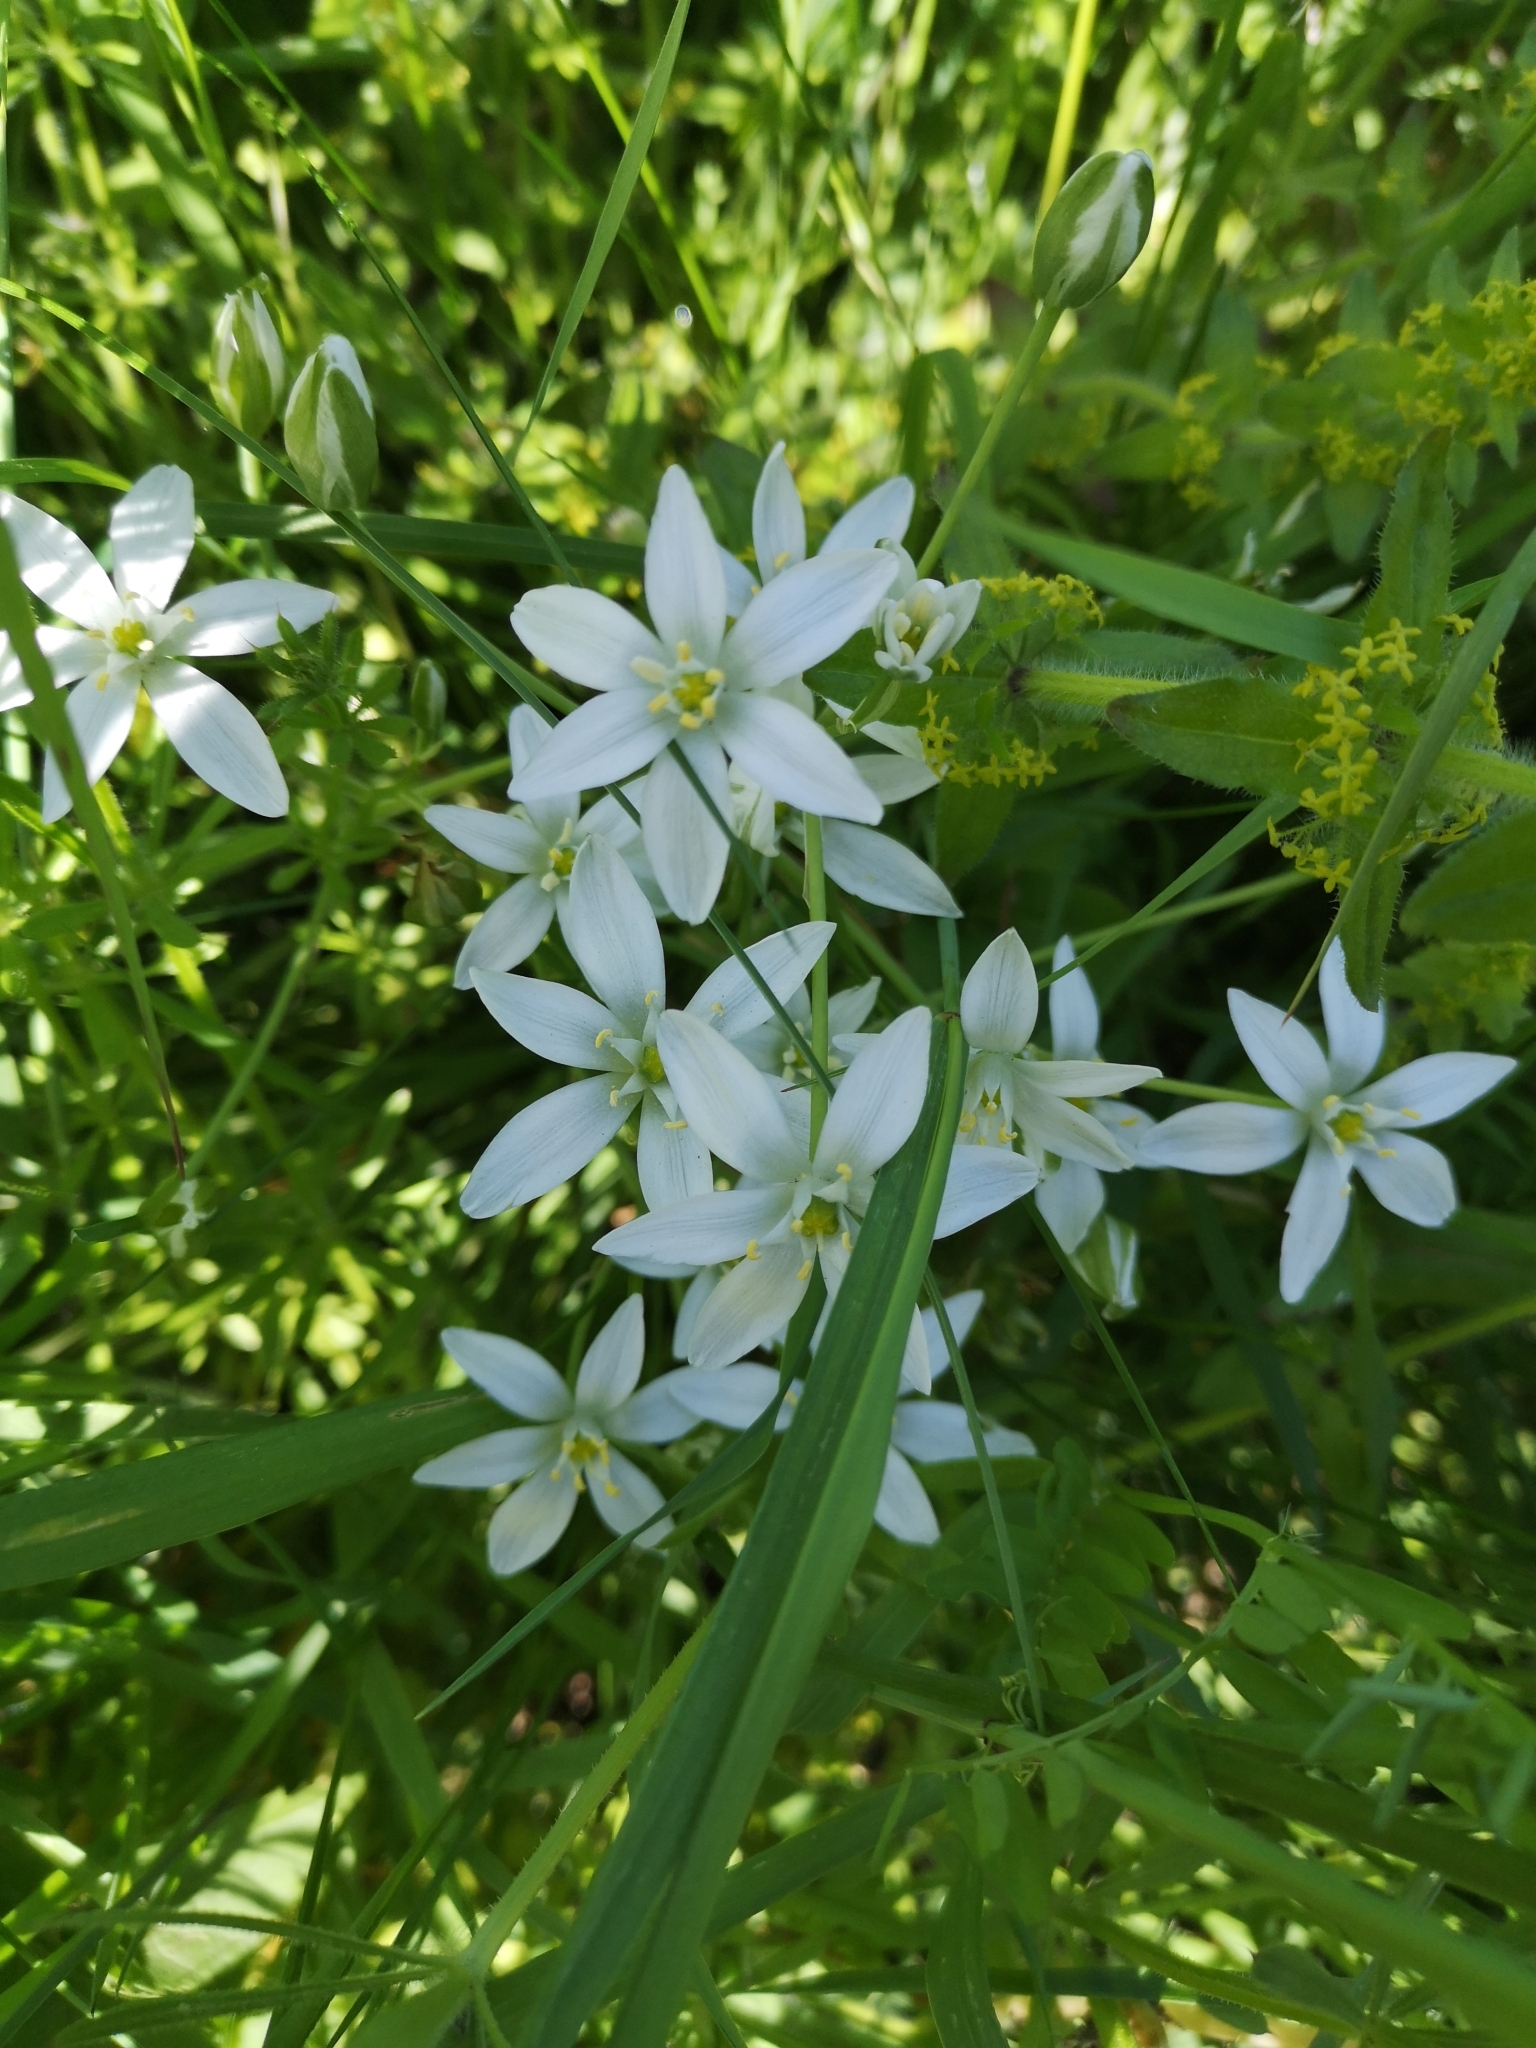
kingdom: Plantae
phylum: Tracheophyta
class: Liliopsida
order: Asparagales
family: Asparagaceae
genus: Ornithogalum
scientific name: Ornithogalum umbellatum
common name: Garden star-of-bethlehem
